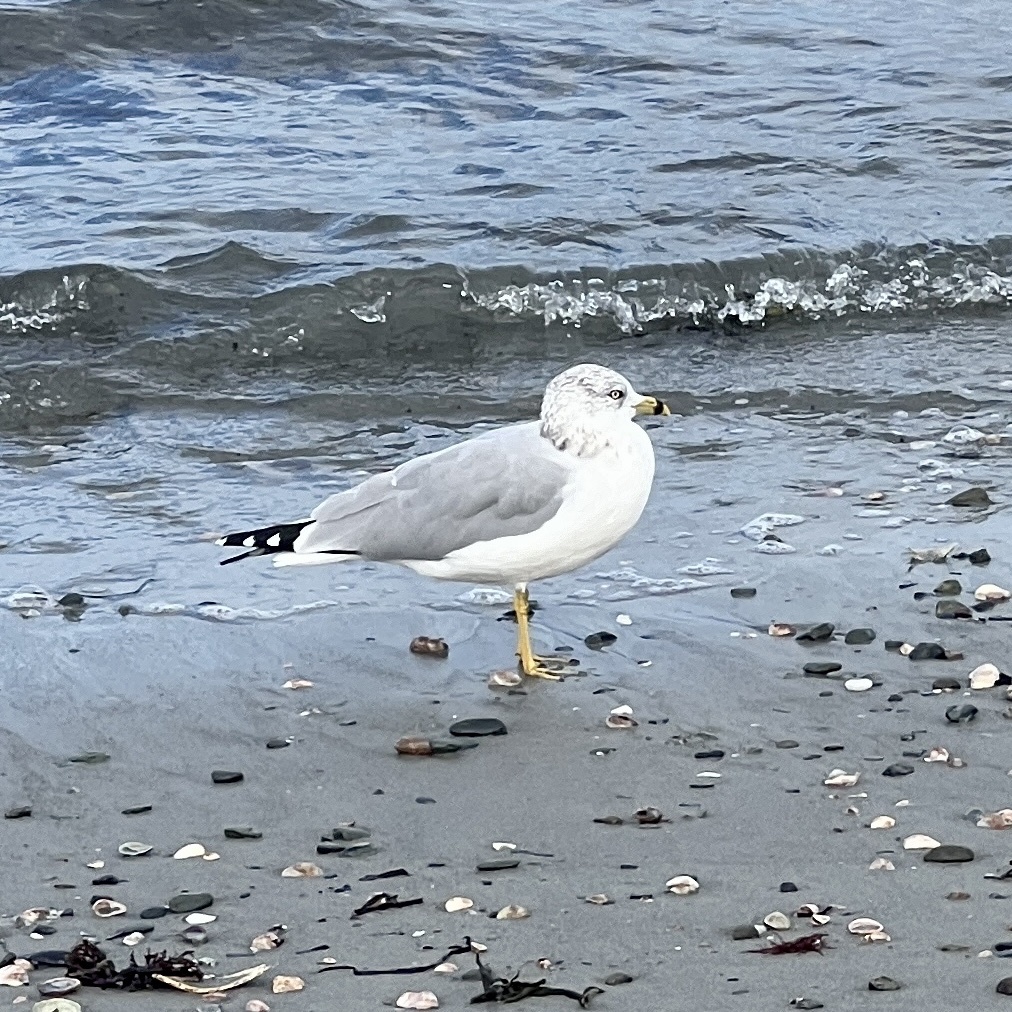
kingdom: Animalia
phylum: Chordata
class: Aves
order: Charadriiformes
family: Laridae
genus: Larus
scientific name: Larus delawarensis
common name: Ring-billed gull
